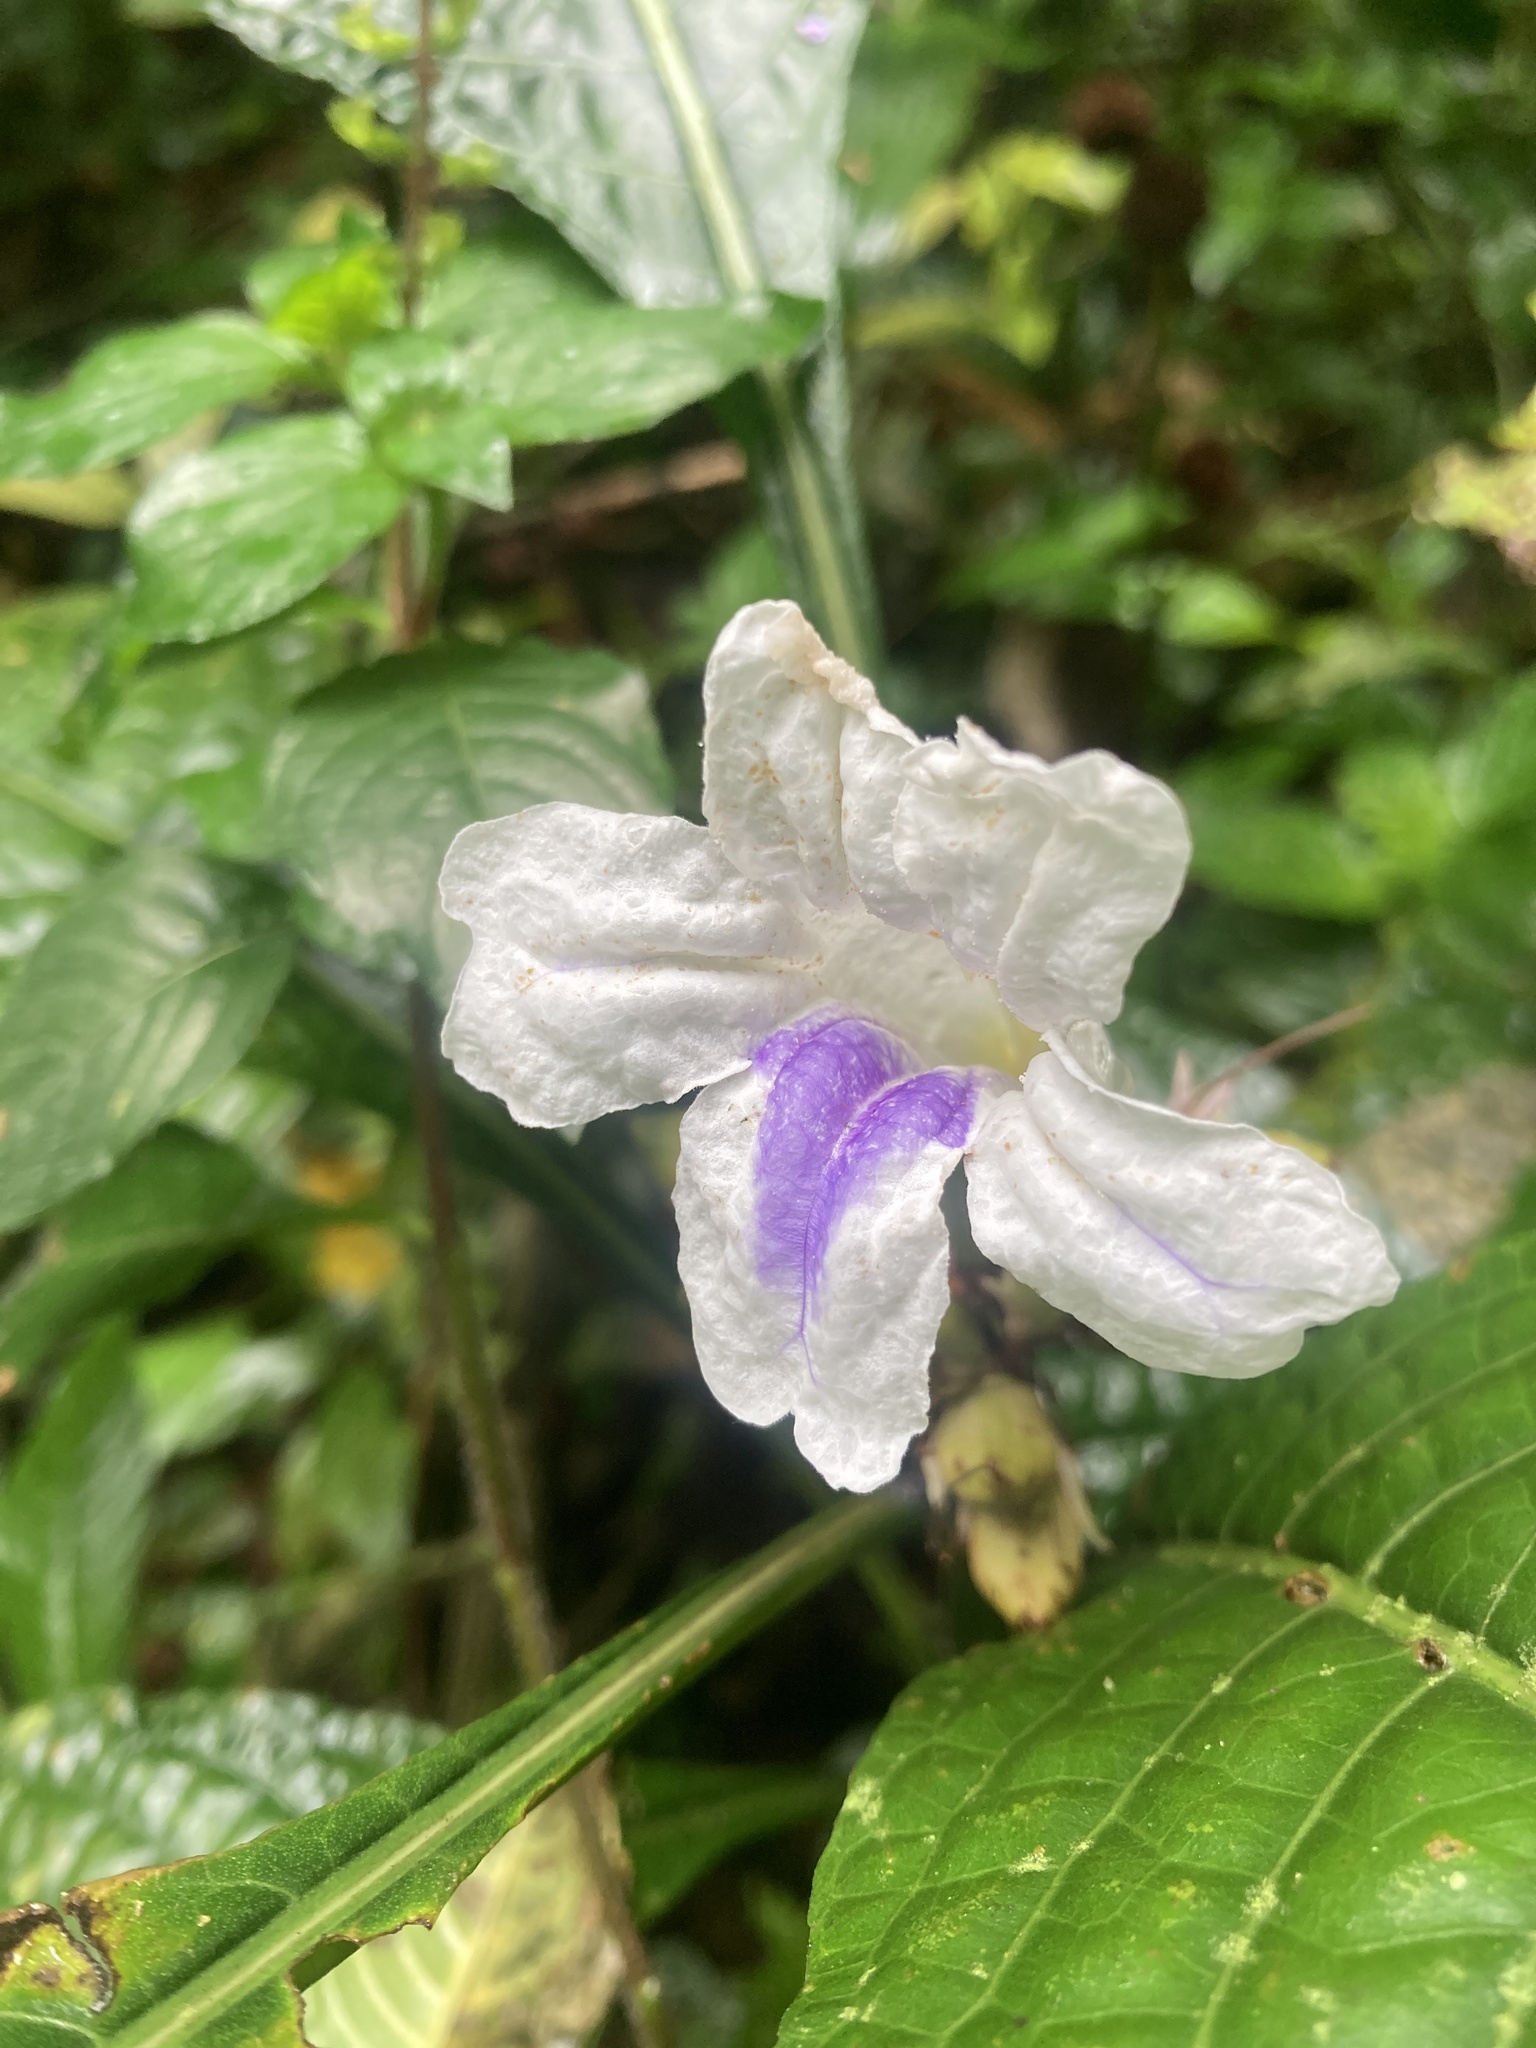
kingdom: Plantae
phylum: Tracheophyta
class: Magnoliopsida
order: Lamiales
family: Acanthaceae
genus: Ruellia
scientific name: Ruellia tubiflora
